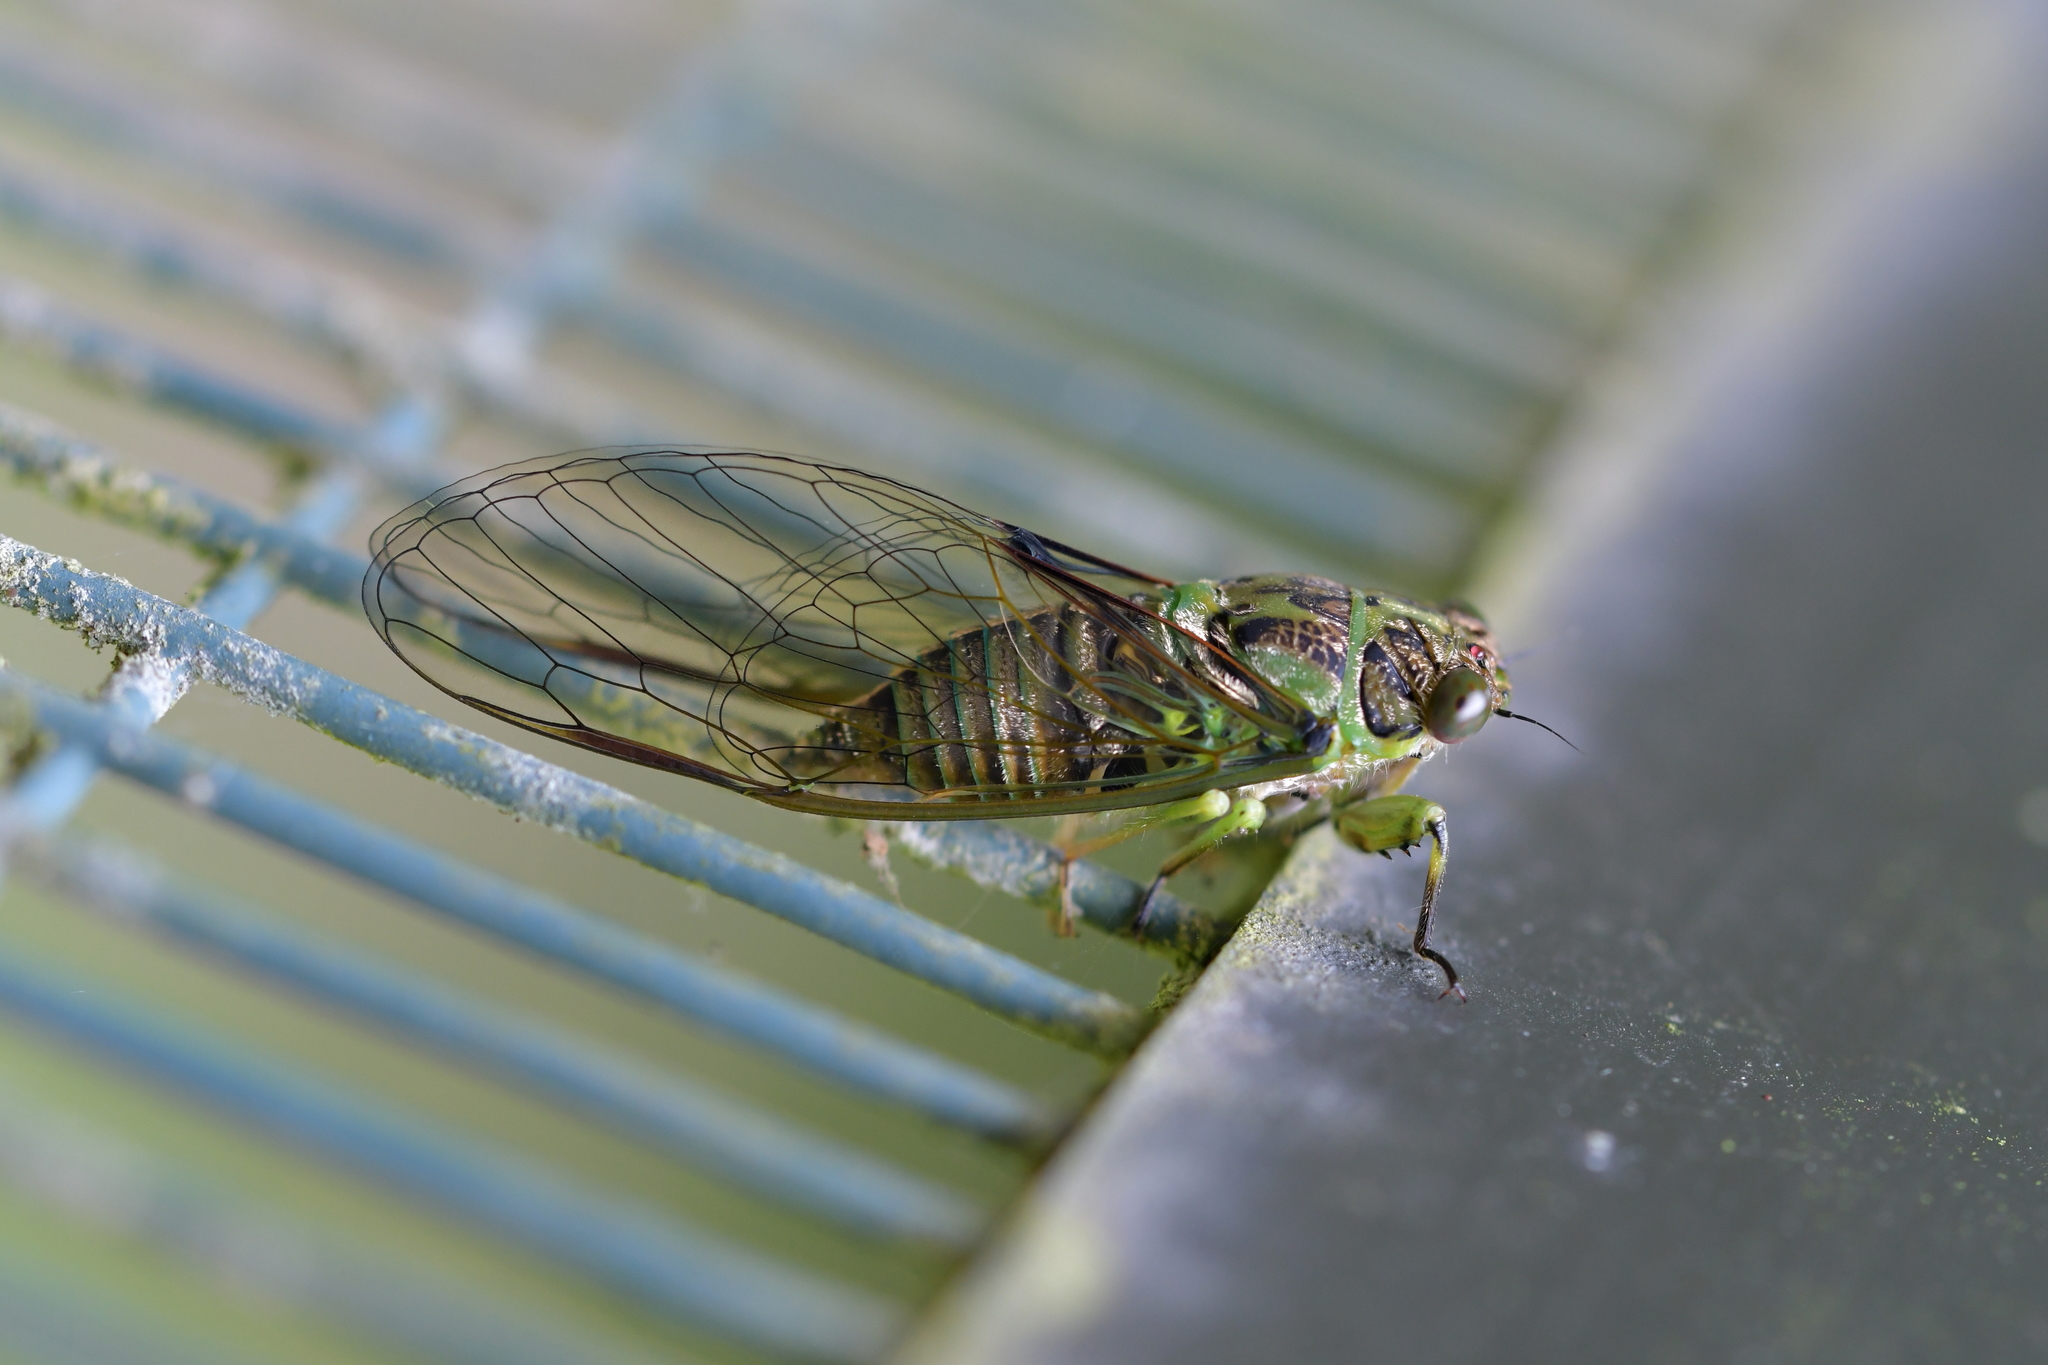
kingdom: Animalia
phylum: Arthropoda
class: Insecta
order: Hemiptera
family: Cicadidae
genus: Kikihia
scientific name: Kikihia scutellaris
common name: Lesser bronze cicada
